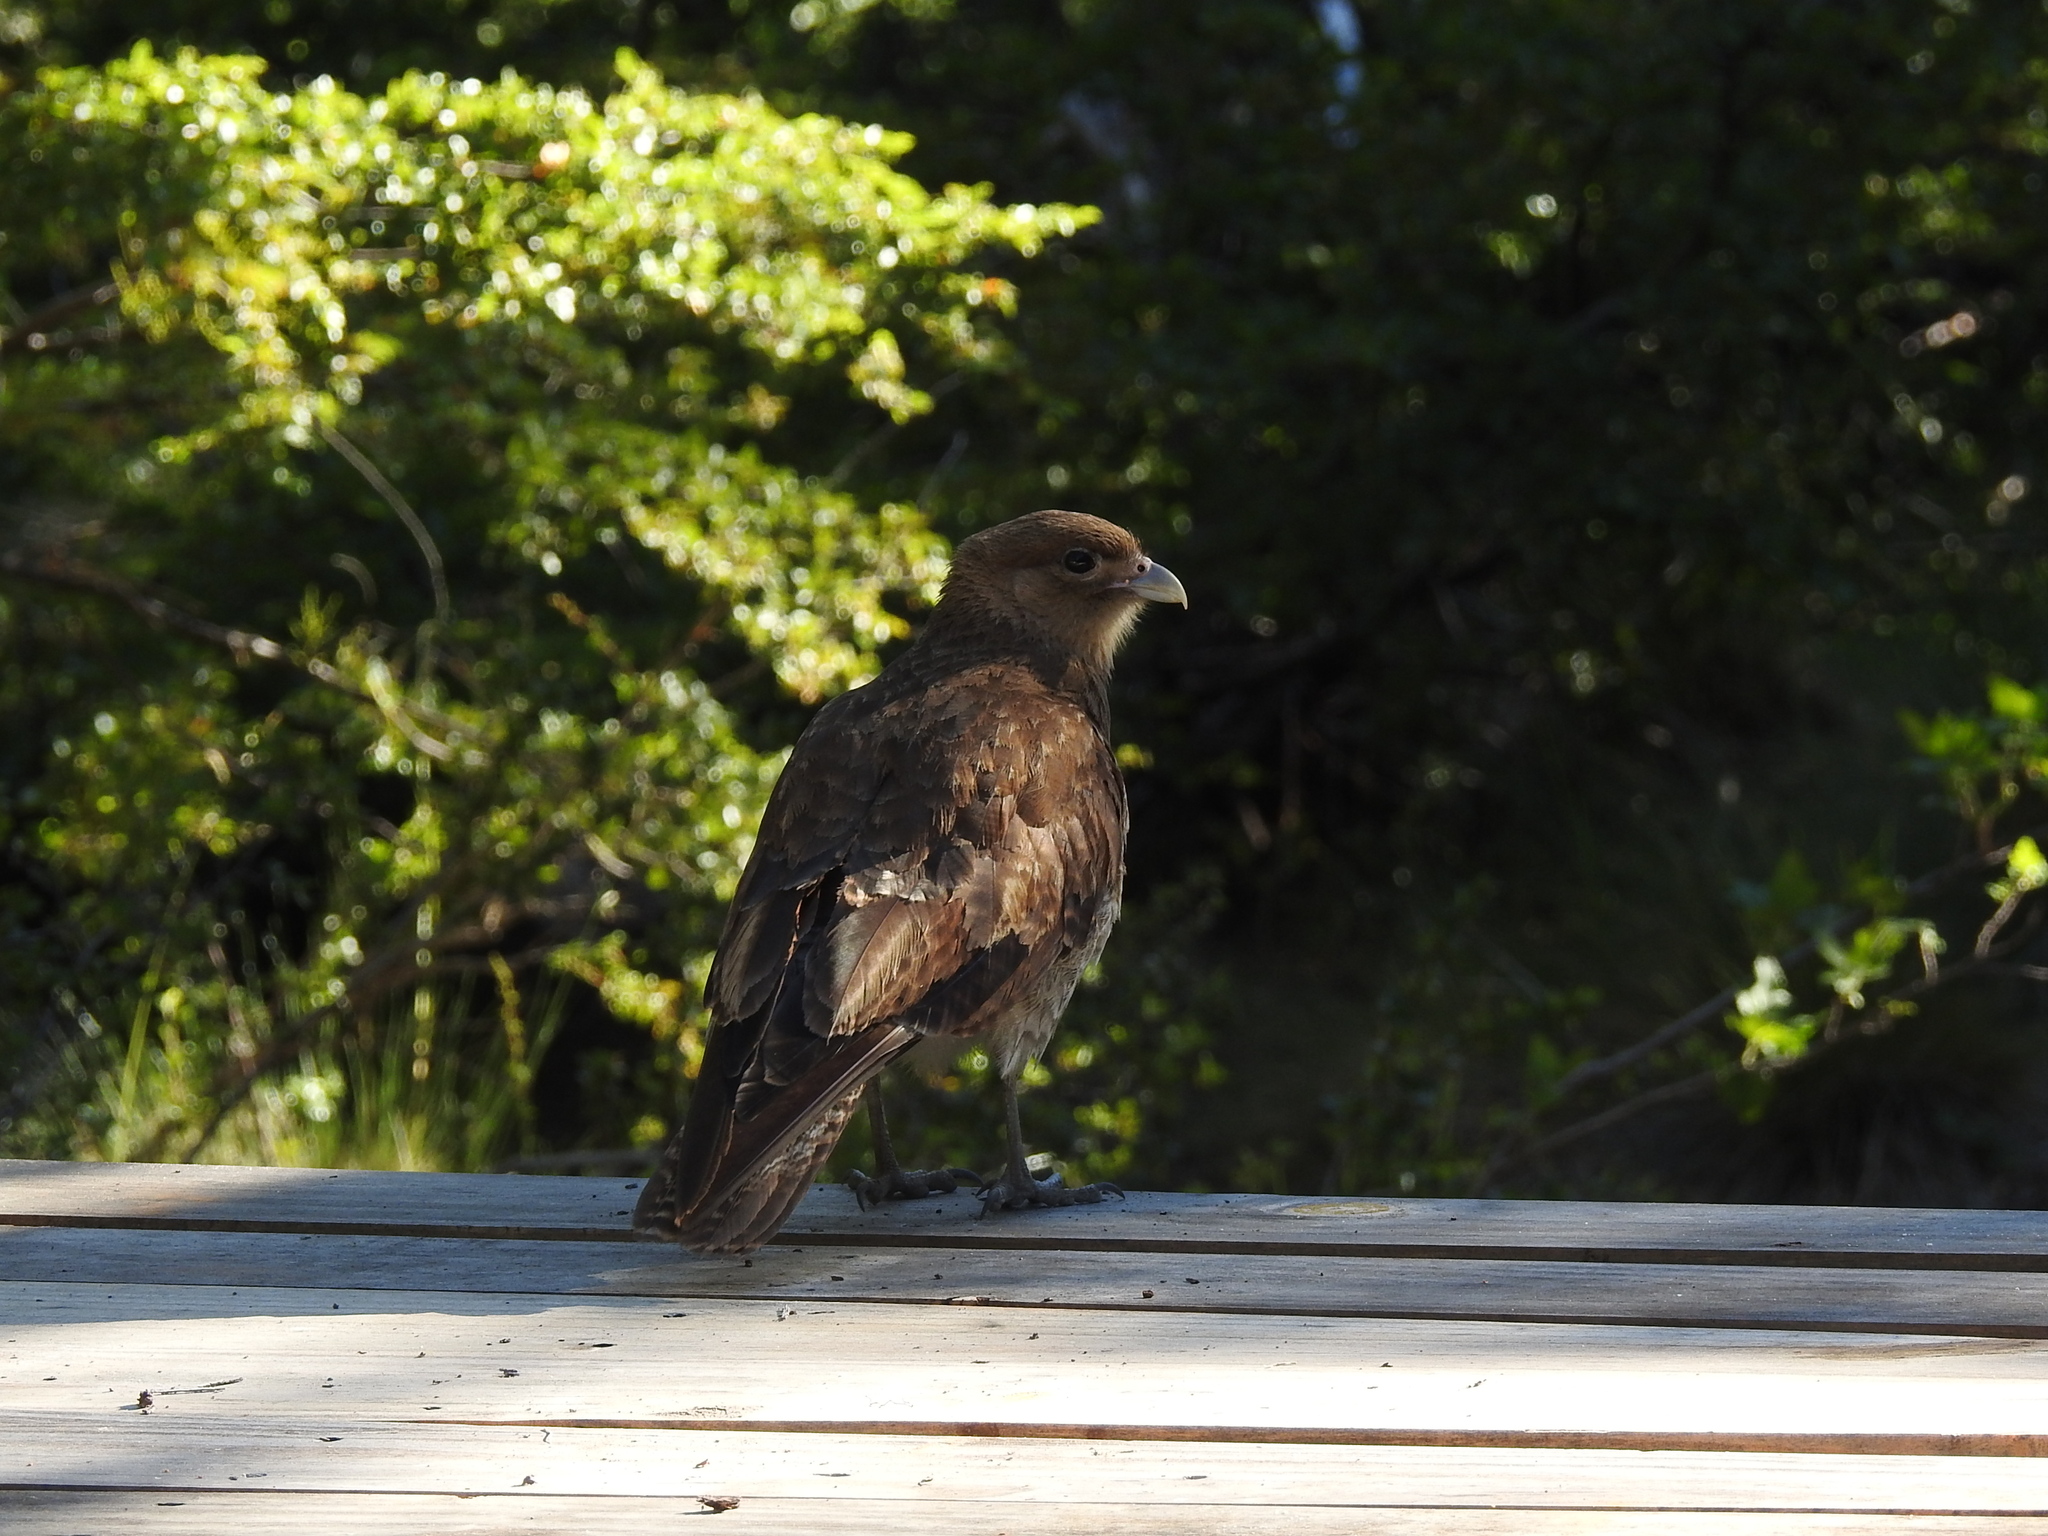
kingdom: Animalia
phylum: Chordata
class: Aves
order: Falconiformes
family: Falconidae
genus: Daptrius
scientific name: Daptrius
